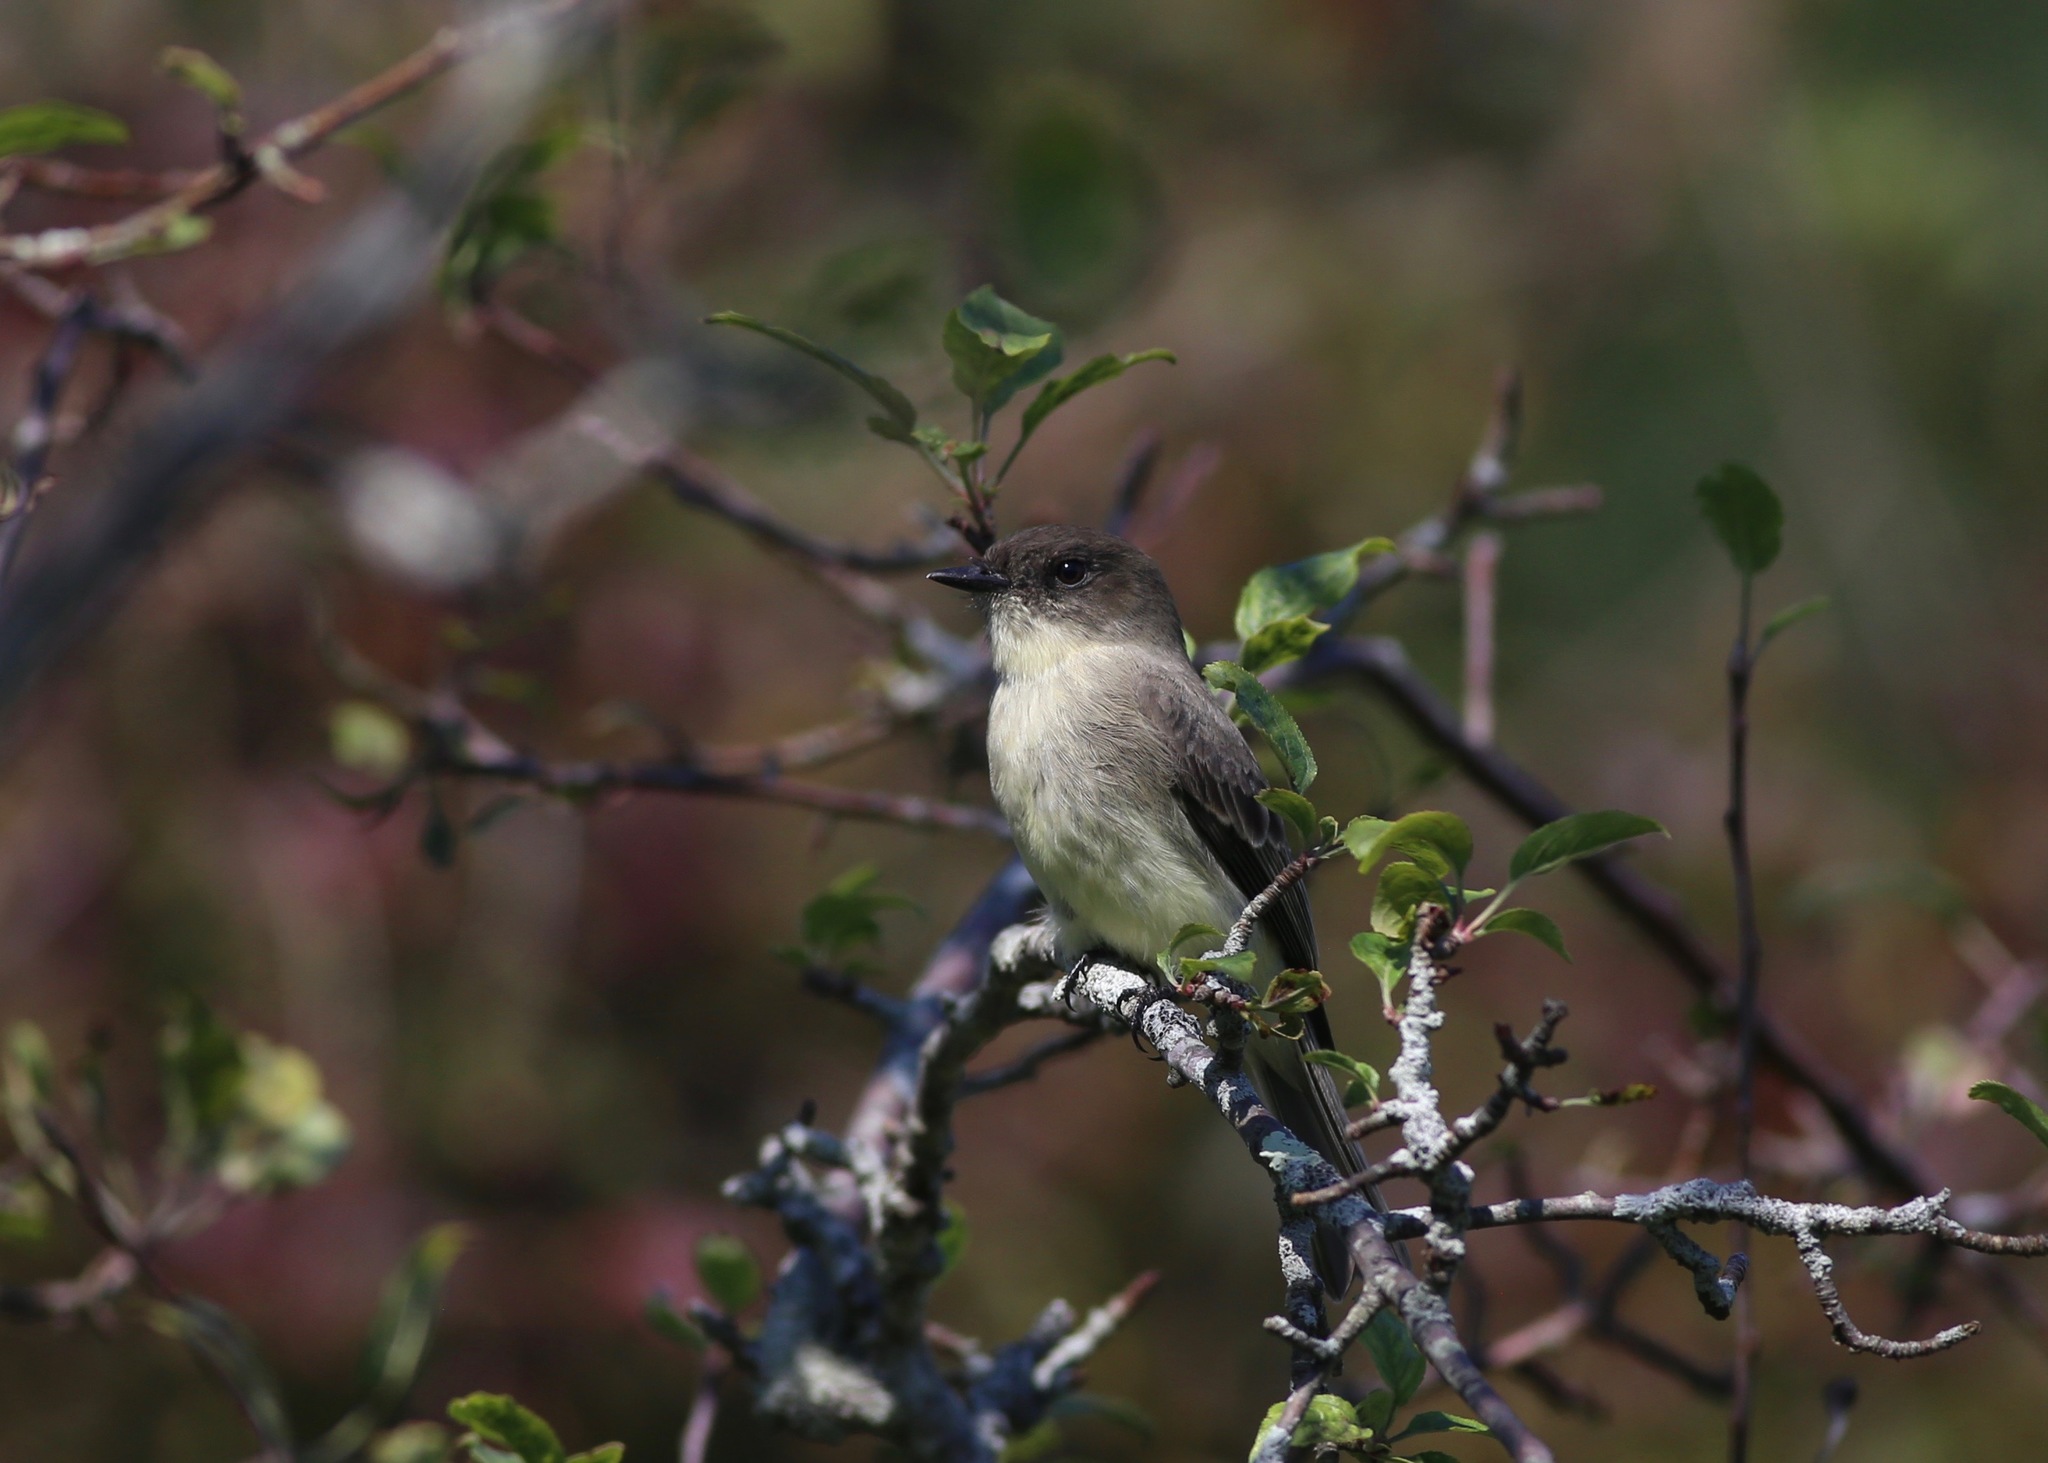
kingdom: Animalia
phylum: Chordata
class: Aves
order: Passeriformes
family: Tyrannidae
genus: Sayornis
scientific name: Sayornis phoebe
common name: Eastern phoebe
